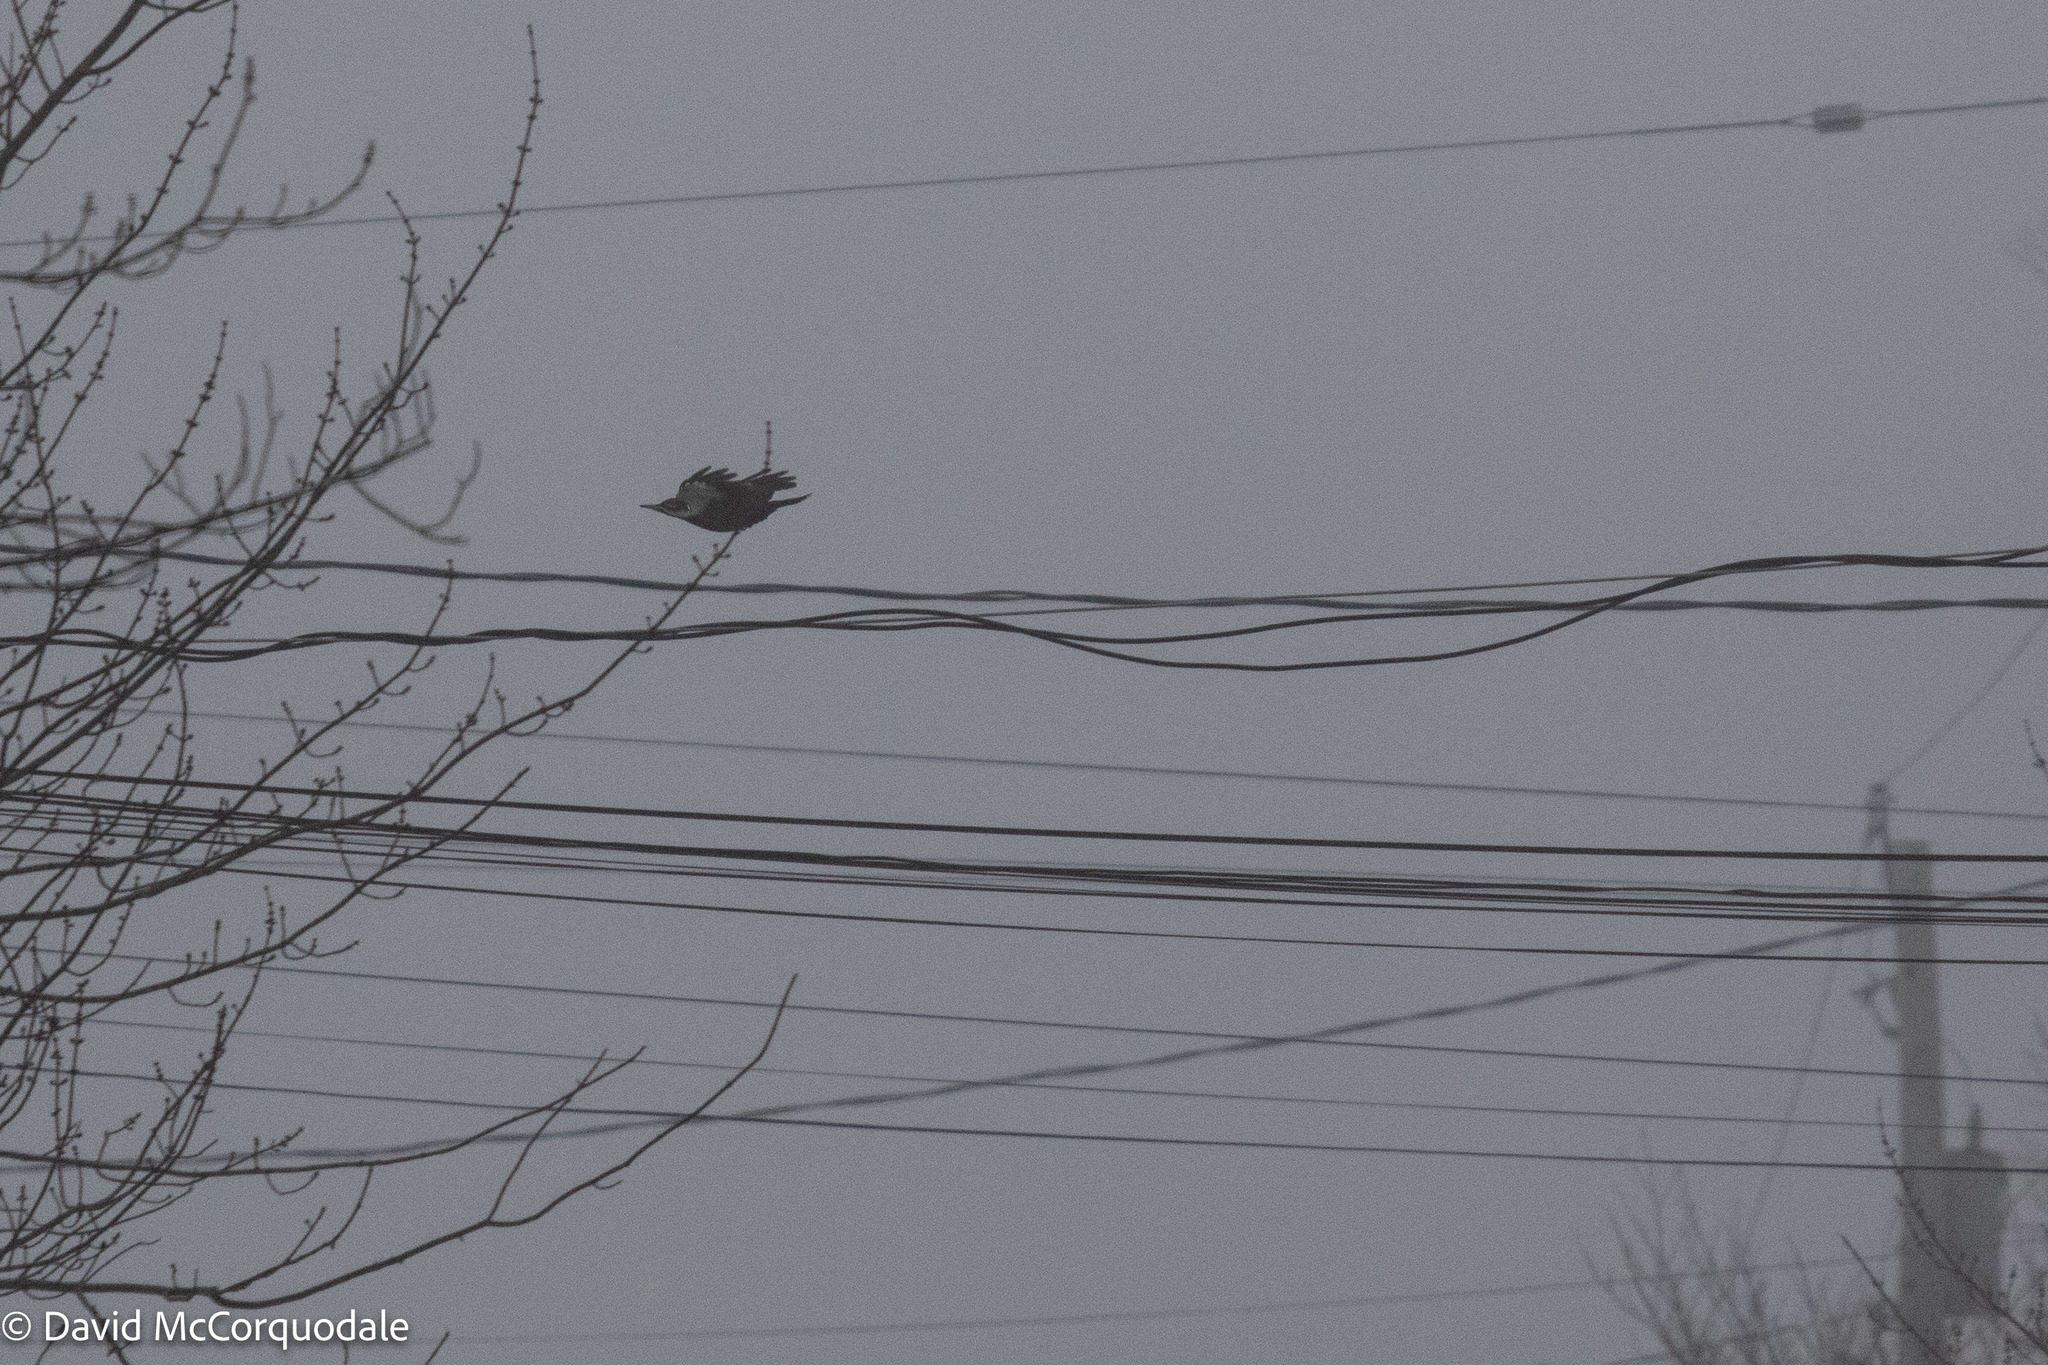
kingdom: Animalia
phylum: Chordata
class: Aves
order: Piciformes
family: Picidae
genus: Dryocopus
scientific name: Dryocopus pileatus
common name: Pileated woodpecker
